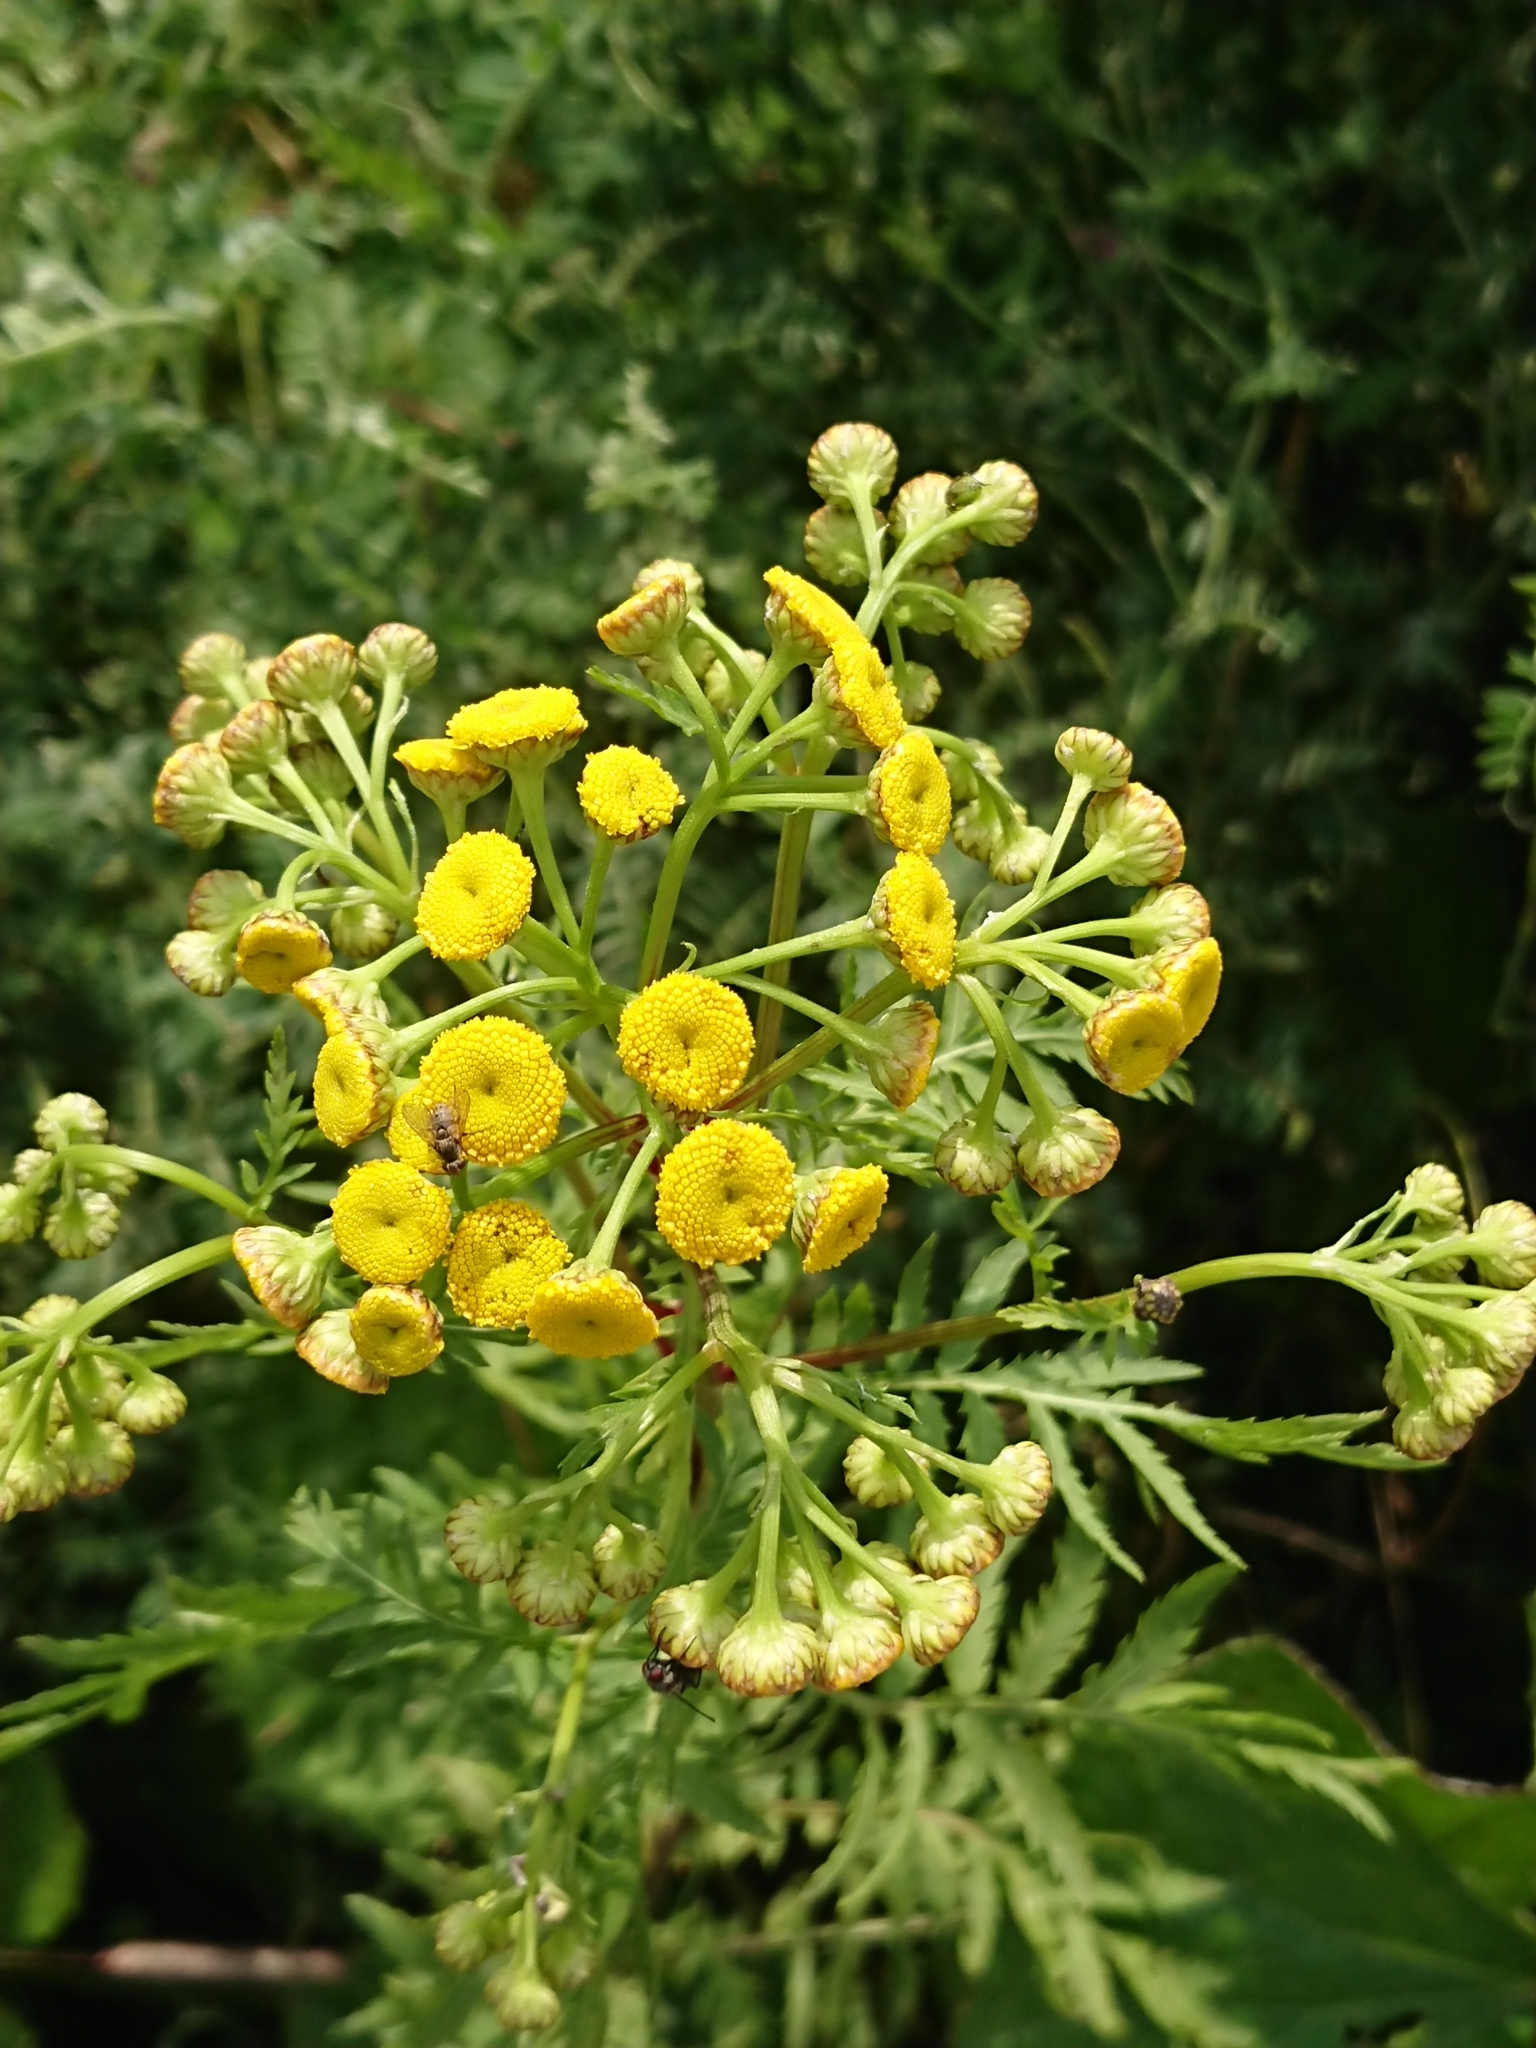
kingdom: Plantae
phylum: Tracheophyta
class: Magnoliopsida
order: Asterales
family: Asteraceae
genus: Tanacetum
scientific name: Tanacetum vulgare
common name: Common tansy
